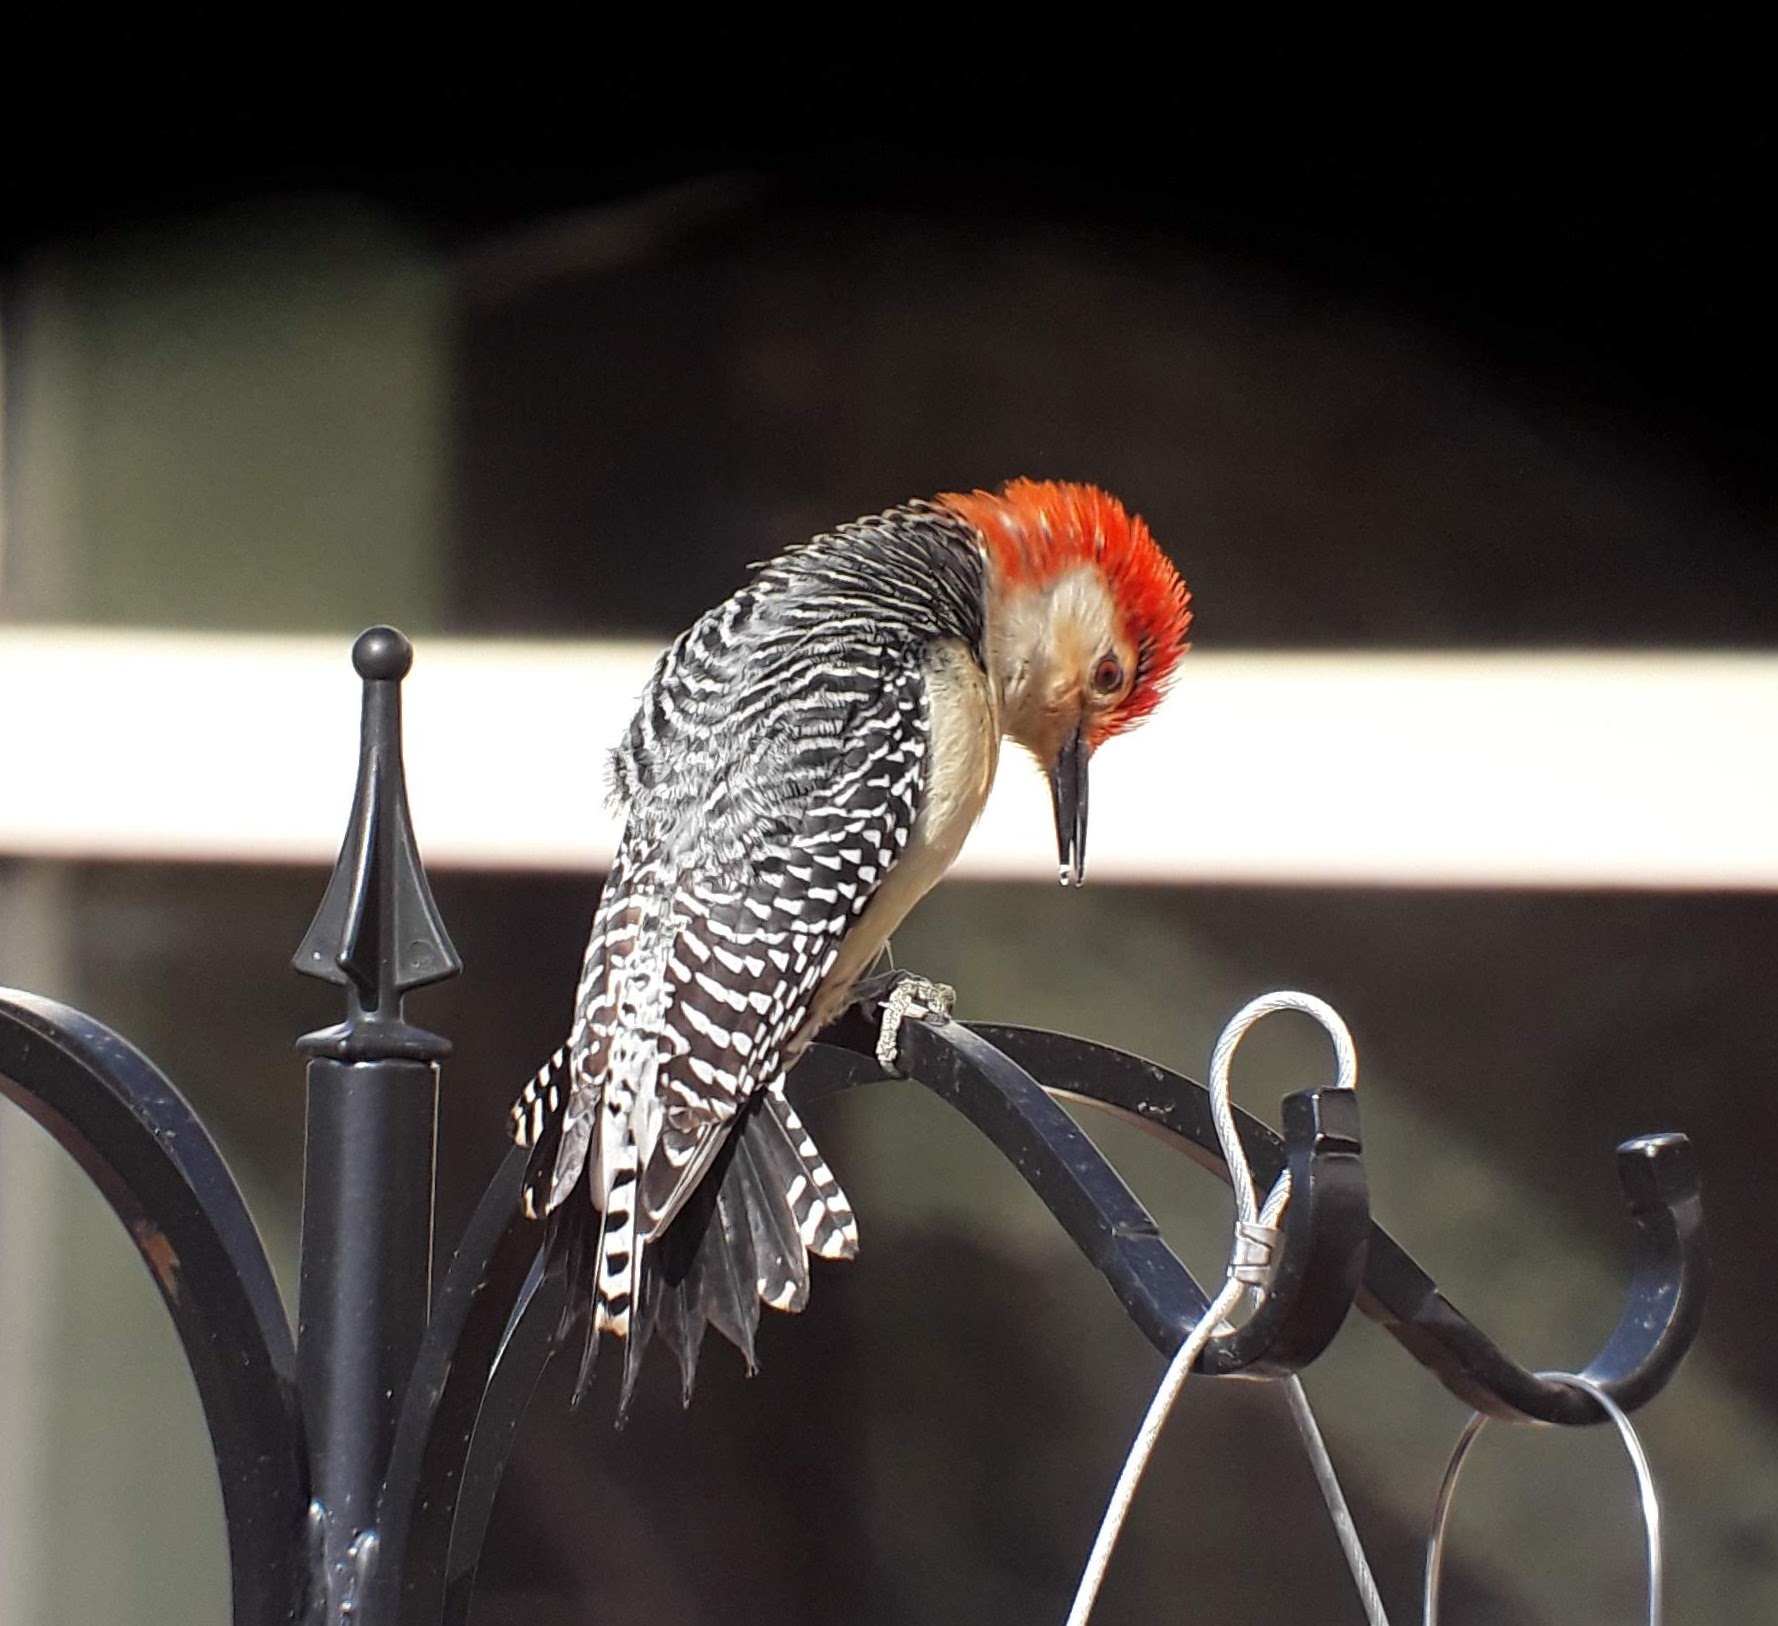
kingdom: Animalia
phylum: Chordata
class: Aves
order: Piciformes
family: Picidae
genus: Melanerpes
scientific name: Melanerpes carolinus
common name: Red-bellied woodpecker
